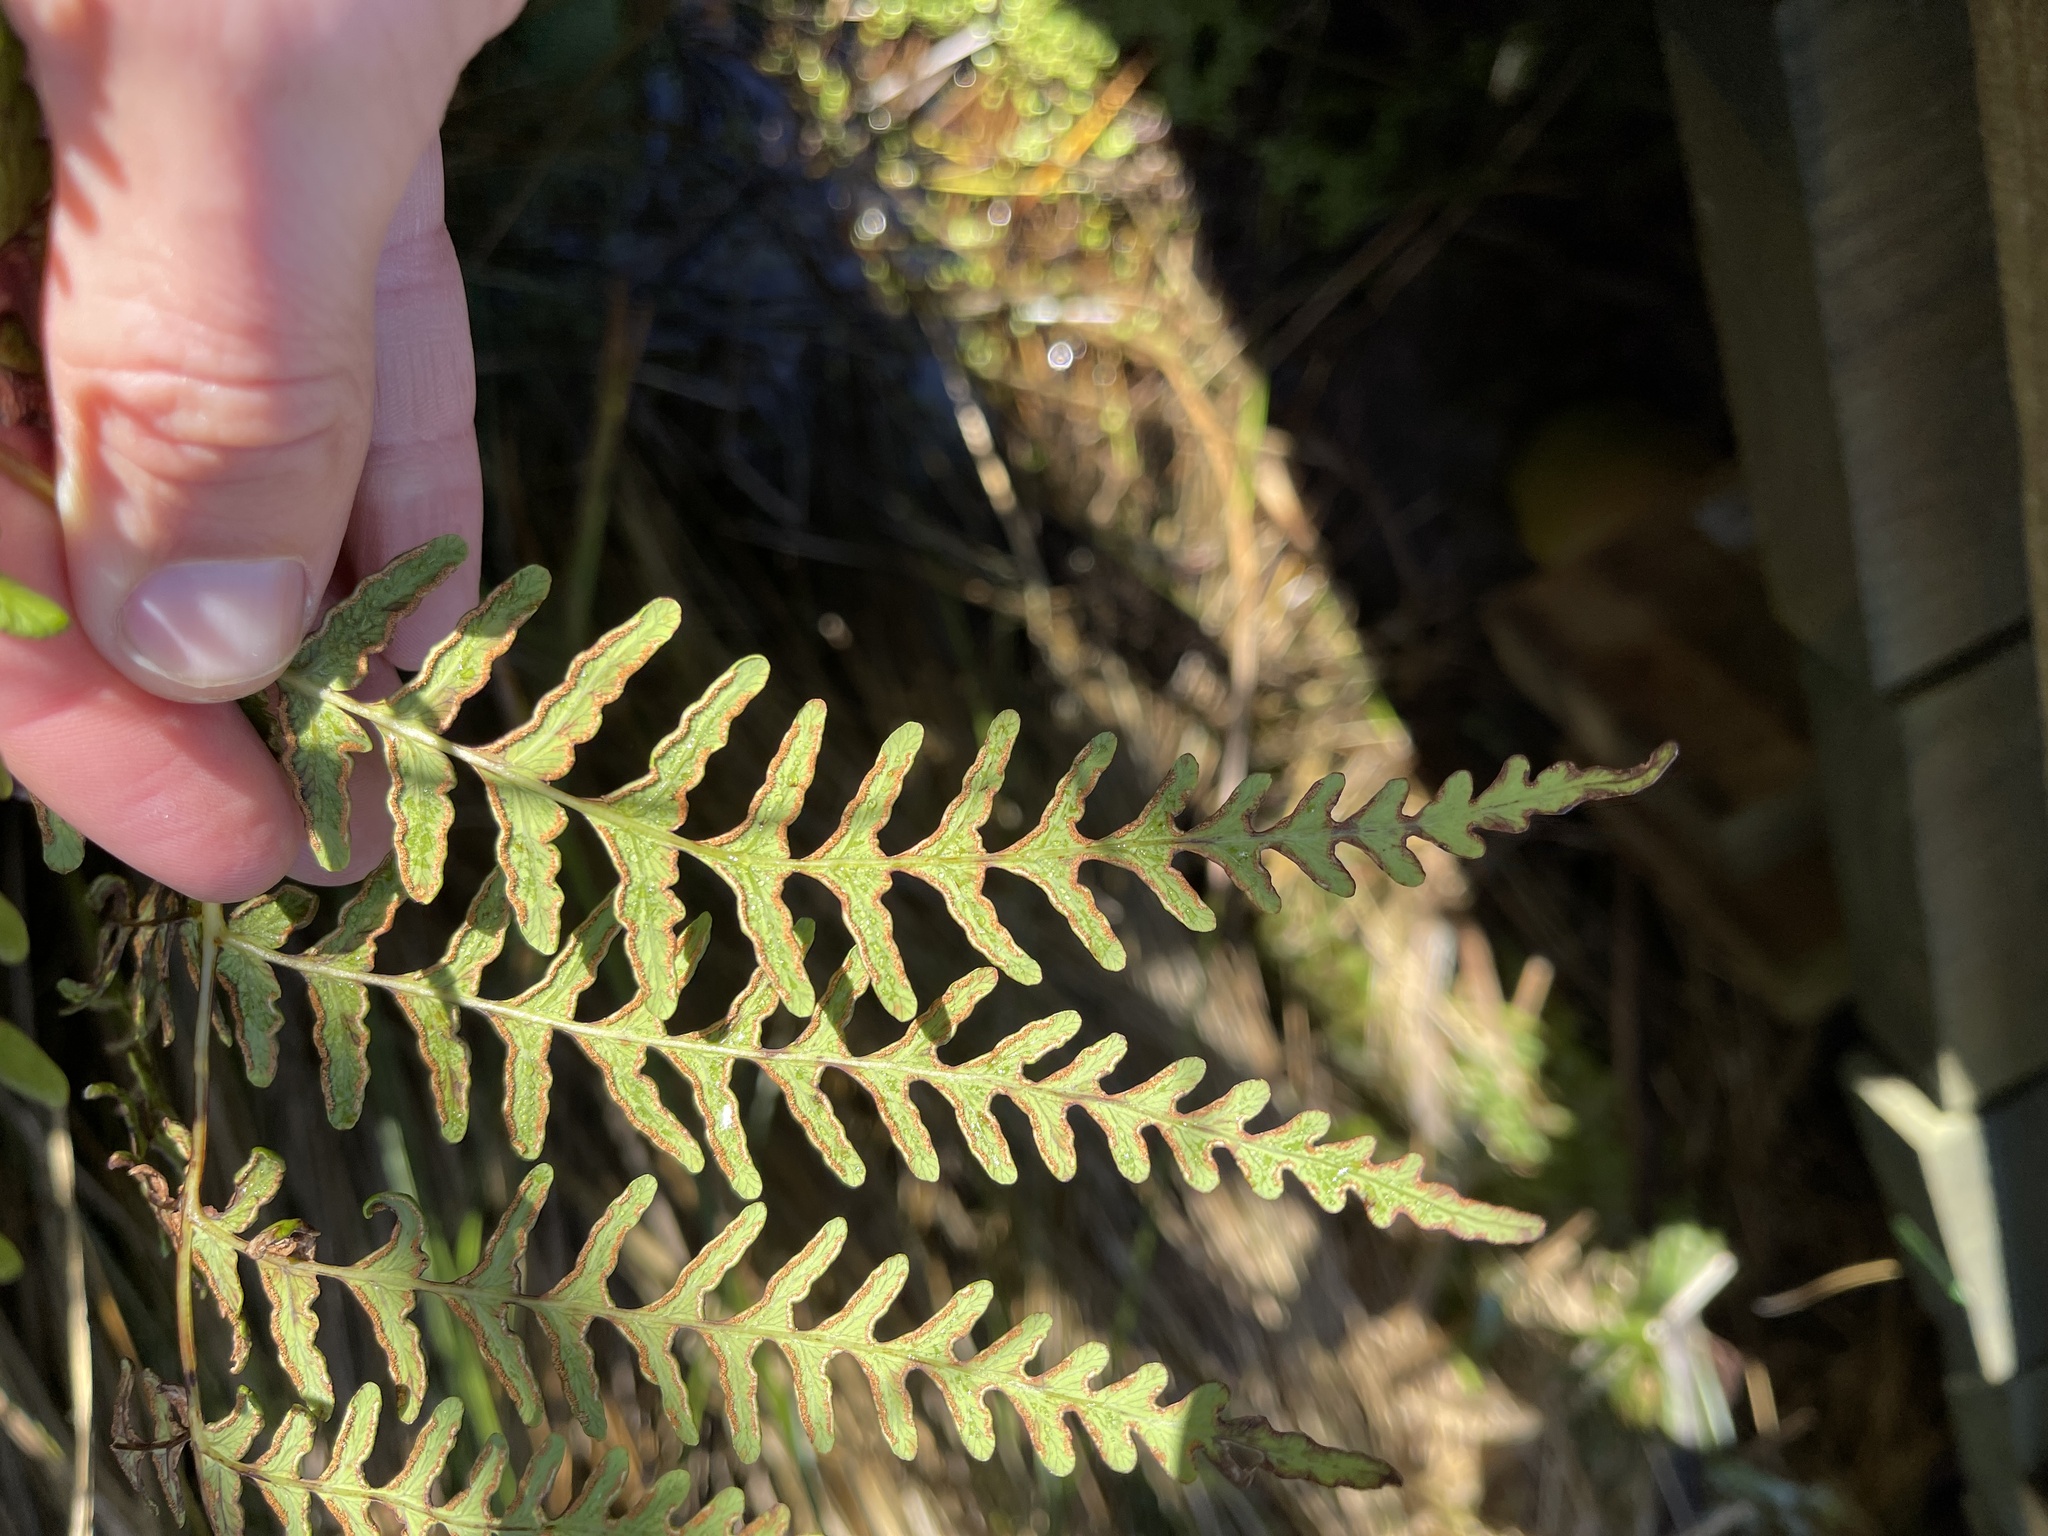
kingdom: Plantae
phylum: Tracheophyta
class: Polypodiopsida
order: Polypodiales
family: Dennstaedtiaceae
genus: Histiopteris
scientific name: Histiopteris incisa
